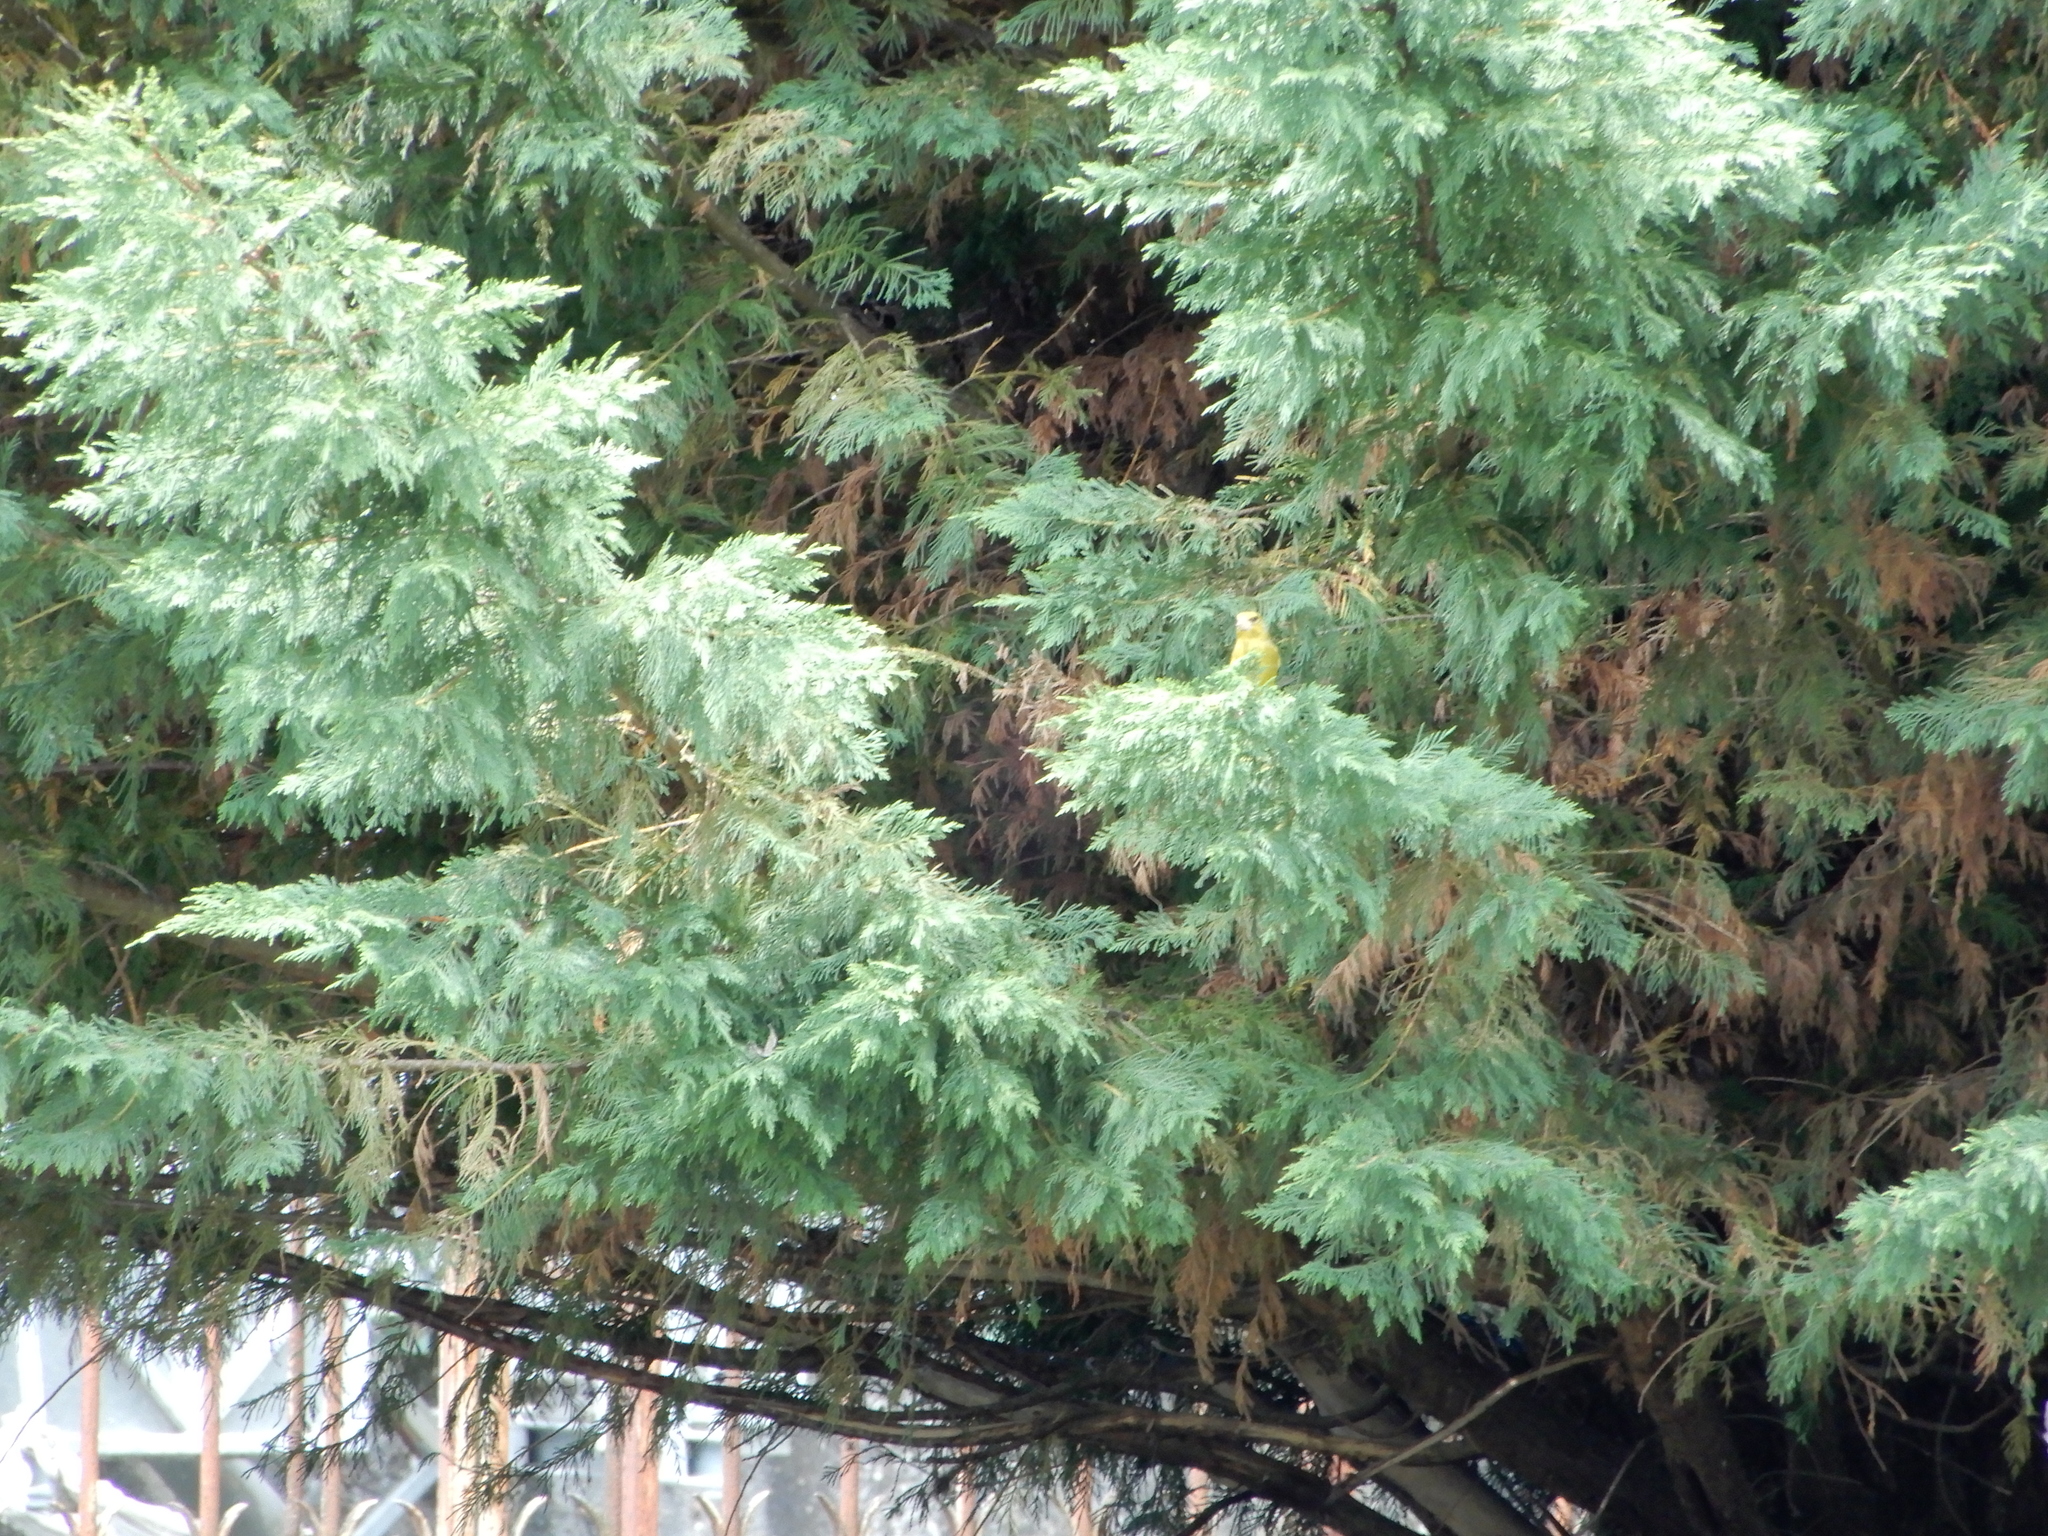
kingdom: Plantae
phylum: Tracheophyta
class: Liliopsida
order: Poales
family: Poaceae
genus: Chloris
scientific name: Chloris chloris
